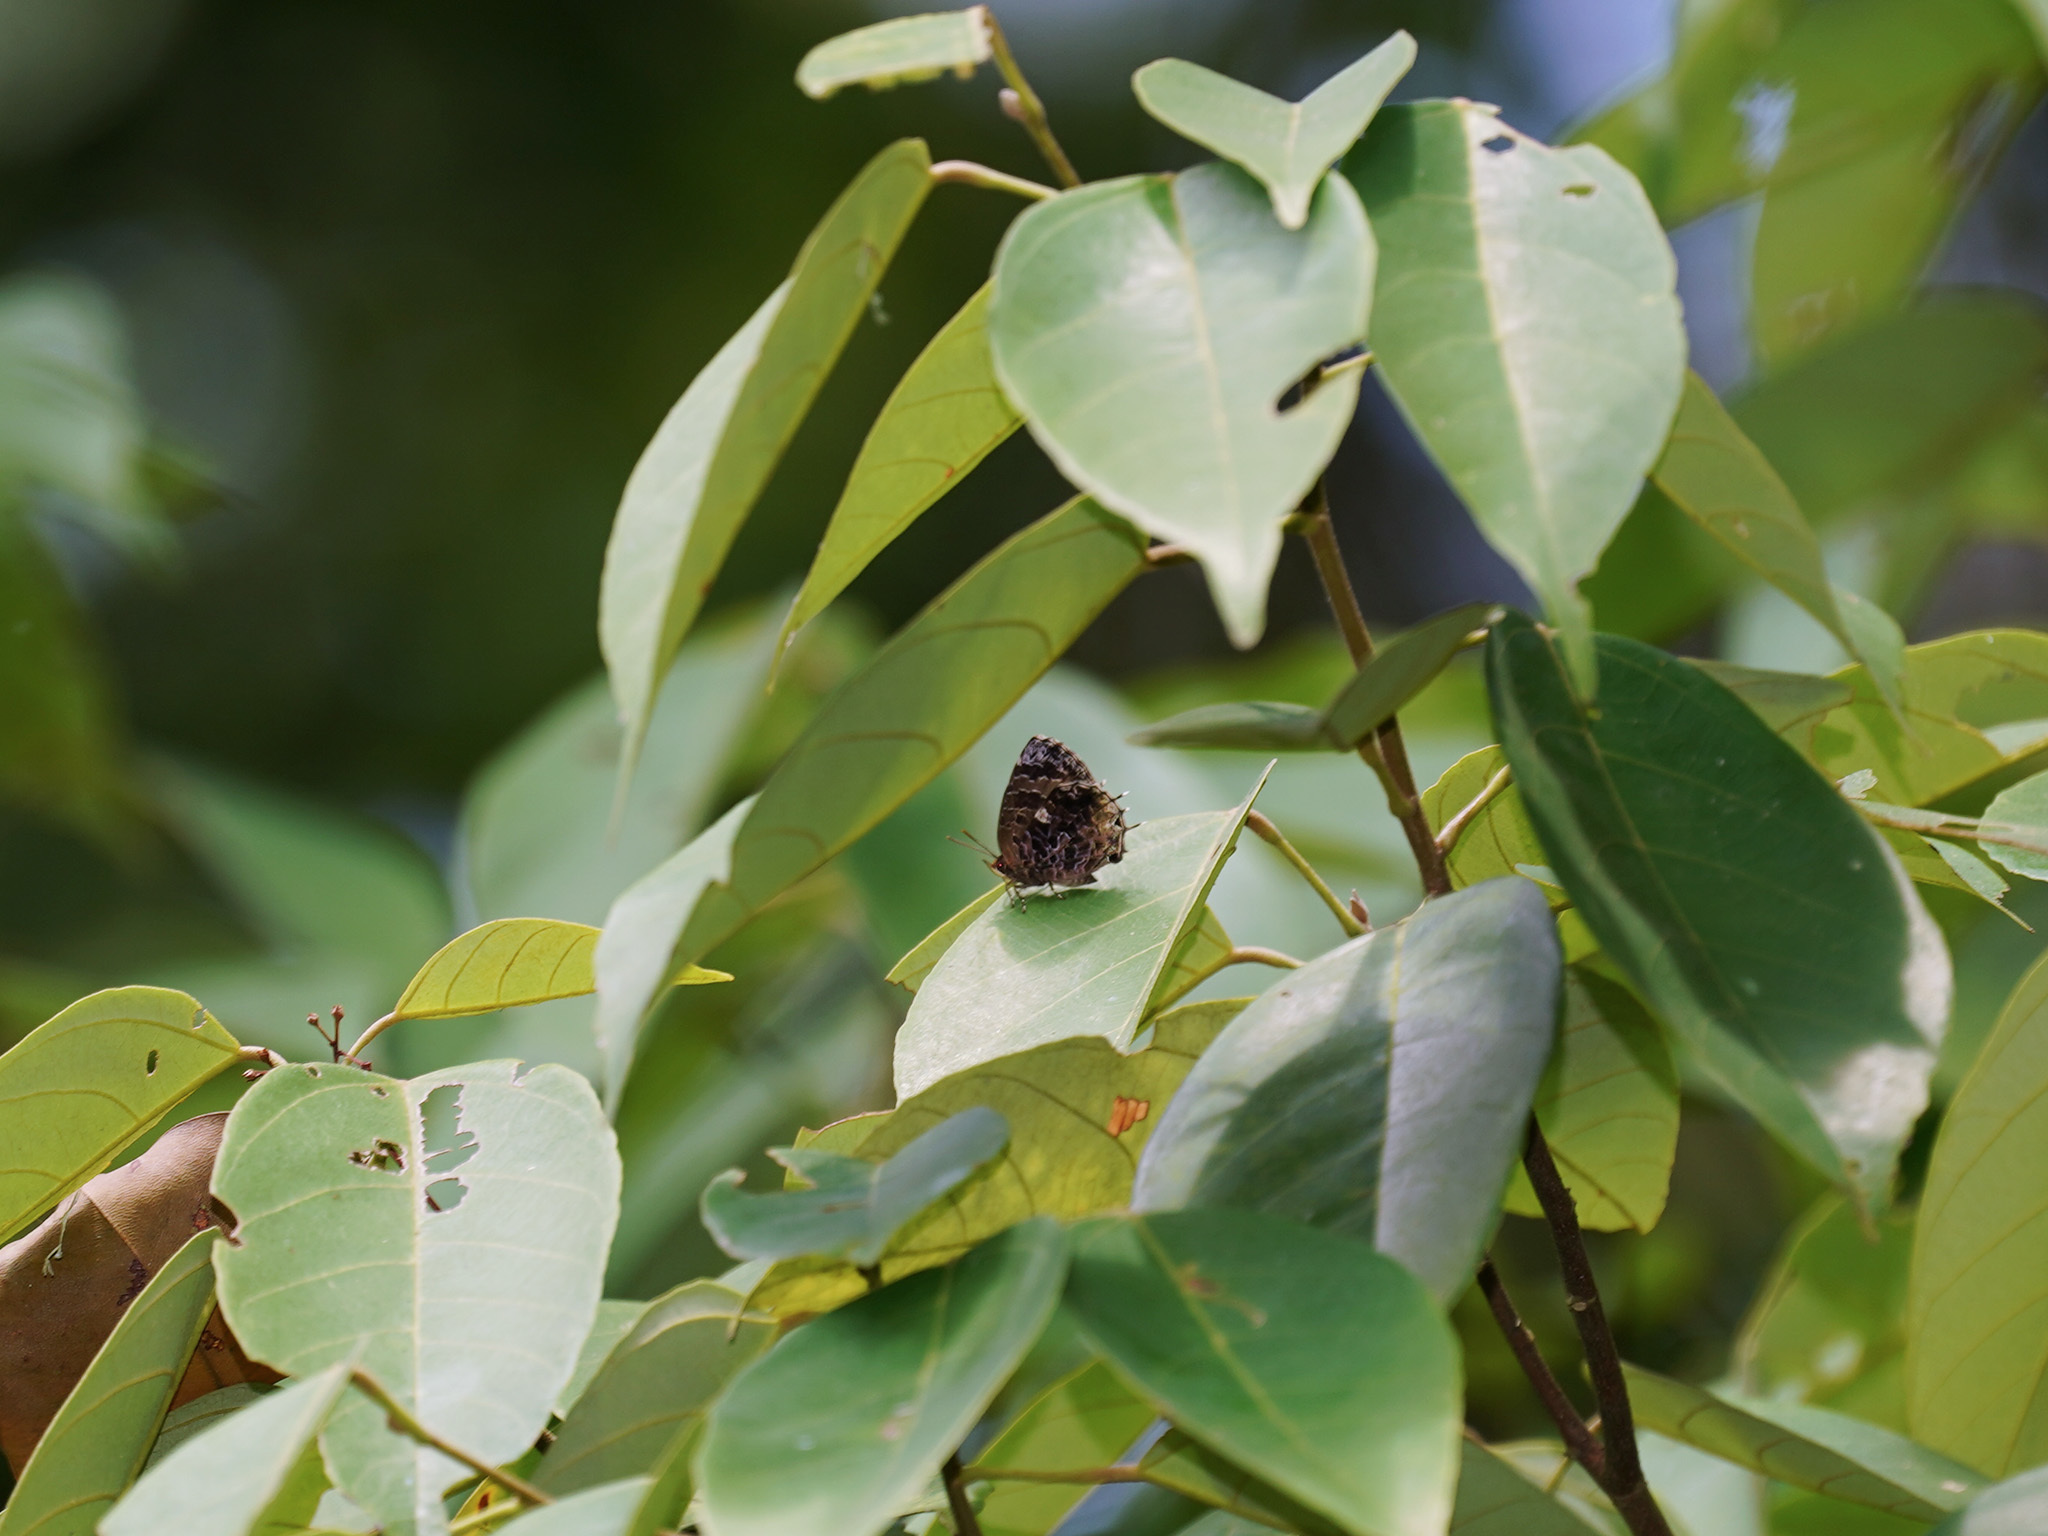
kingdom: Animalia
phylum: Arthropoda
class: Insecta
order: Lepidoptera
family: Lycaenidae
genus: Arhopala
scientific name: Arhopala abseus
